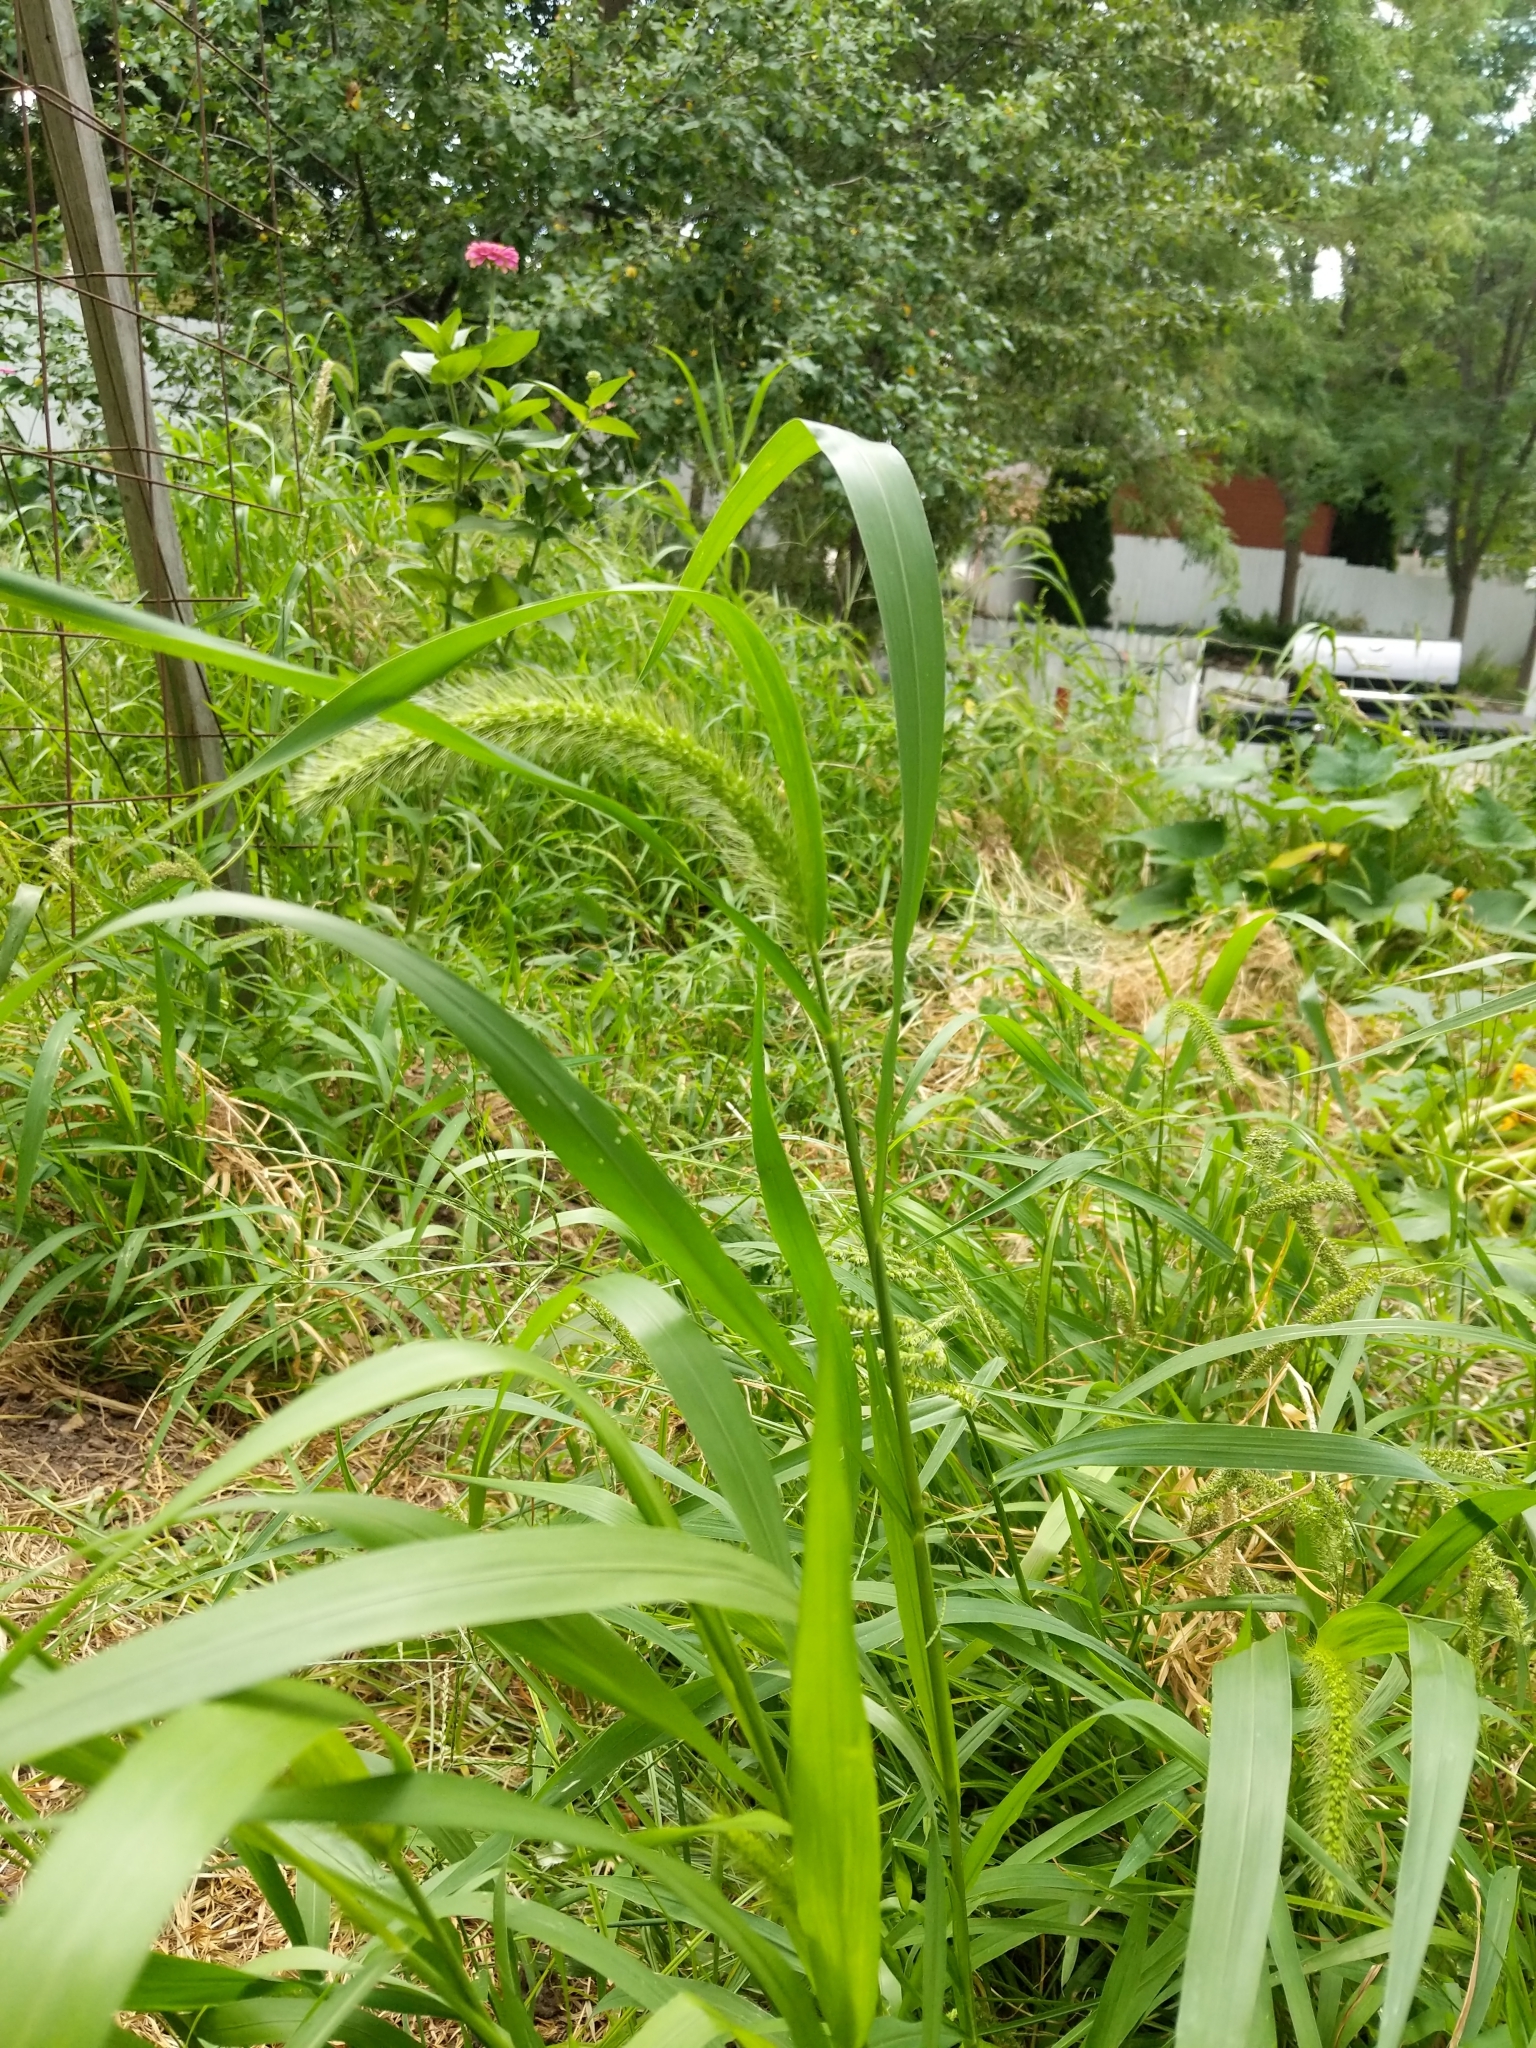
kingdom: Plantae
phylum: Tracheophyta
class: Liliopsida
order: Poales
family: Poaceae
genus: Setaria
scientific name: Setaria faberi
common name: Nodding bristle-grass
